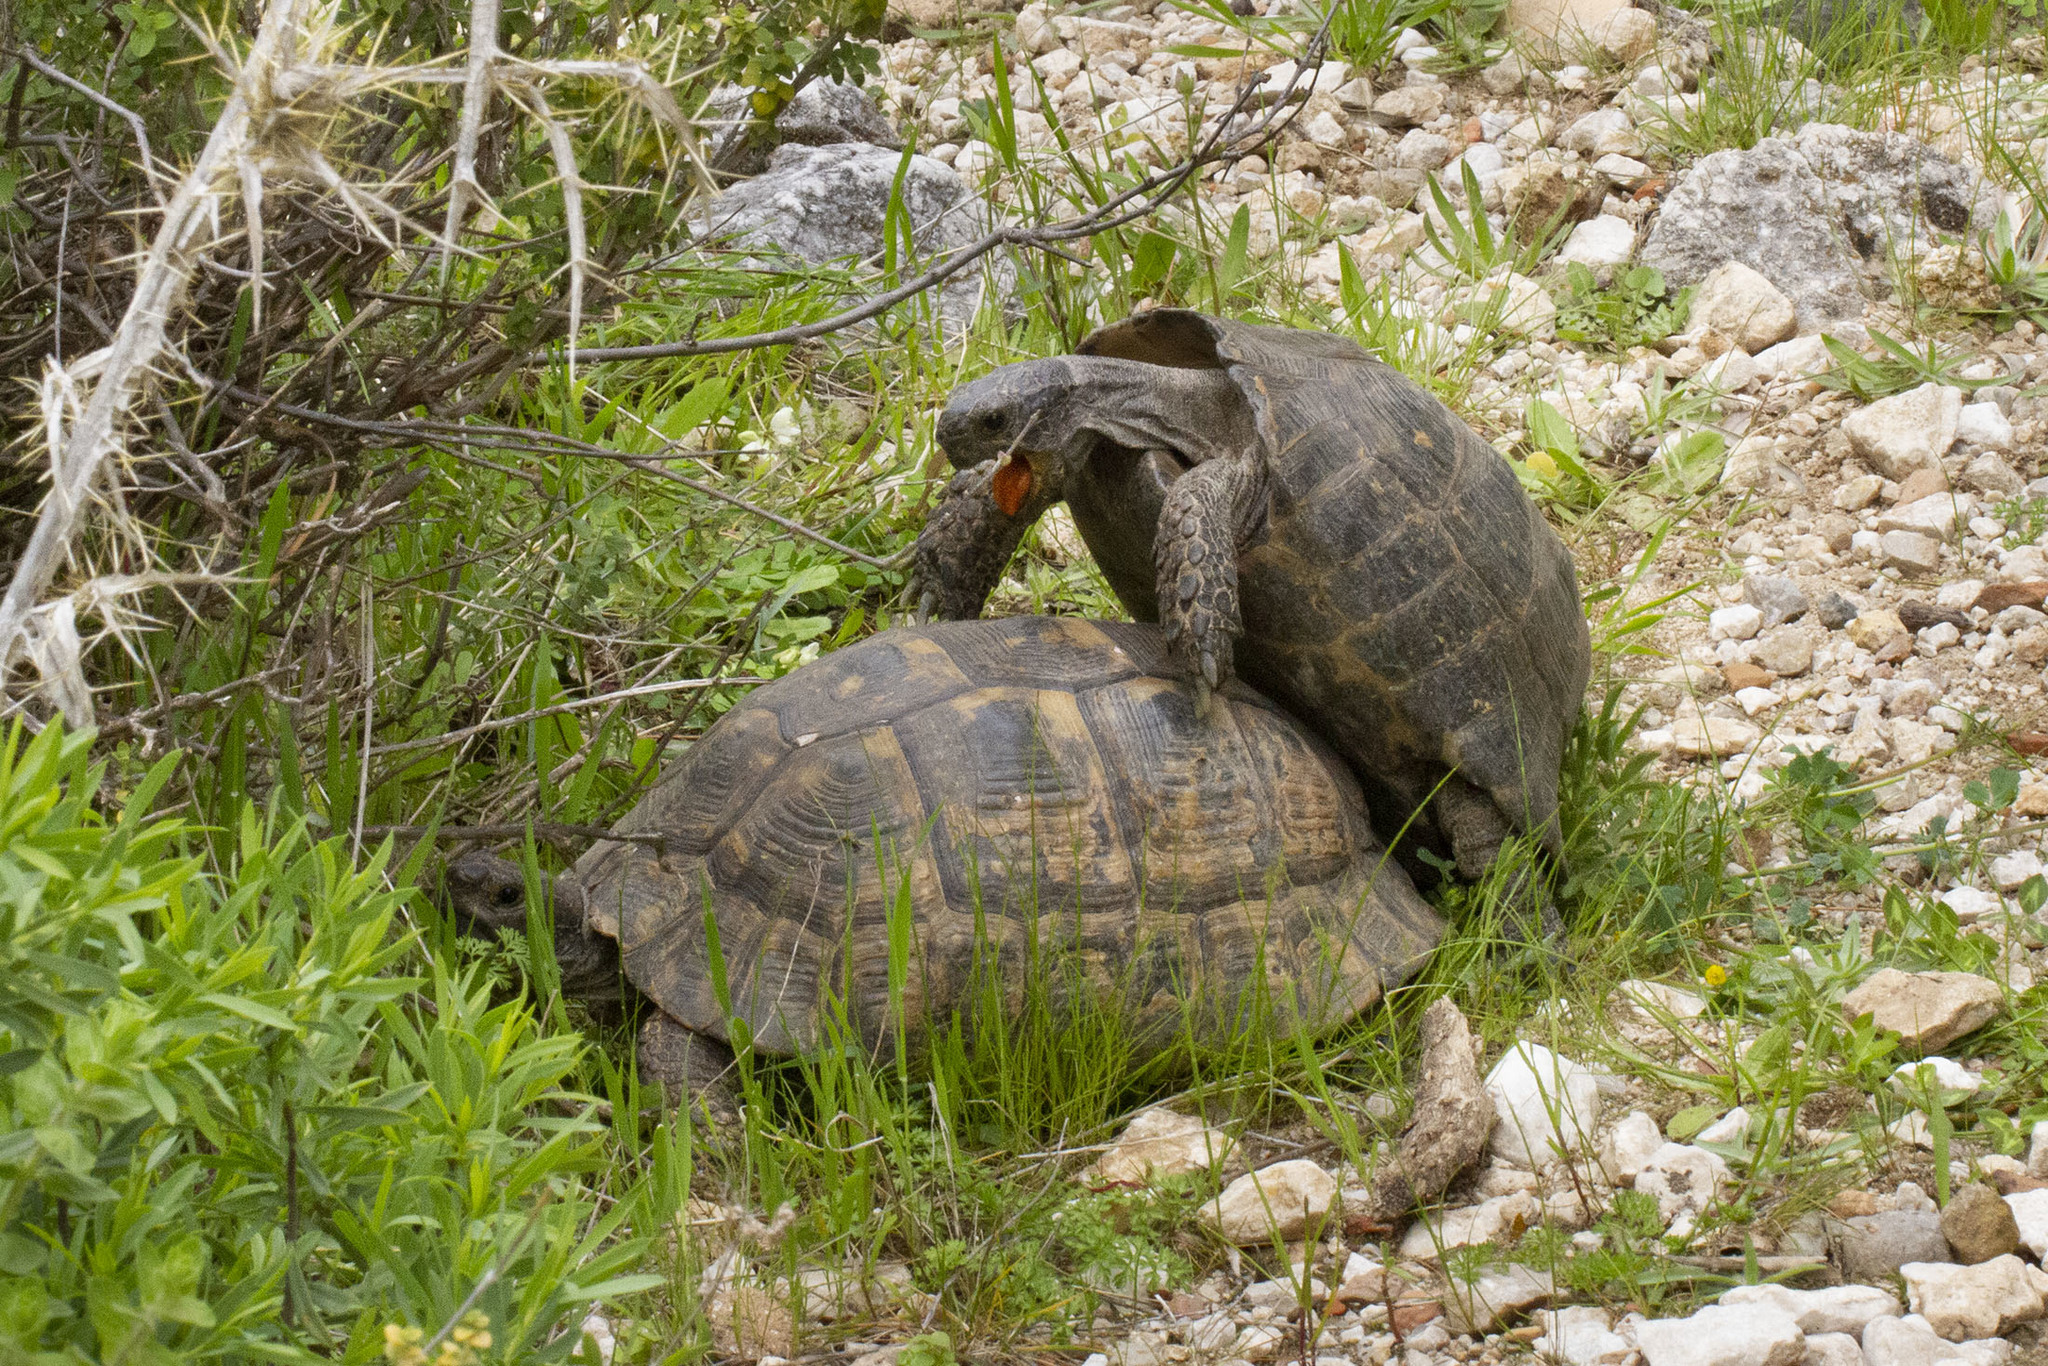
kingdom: Animalia
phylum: Chordata
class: Testudines
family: Testudinidae
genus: Testudo
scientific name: Testudo graeca
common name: Common tortoise
